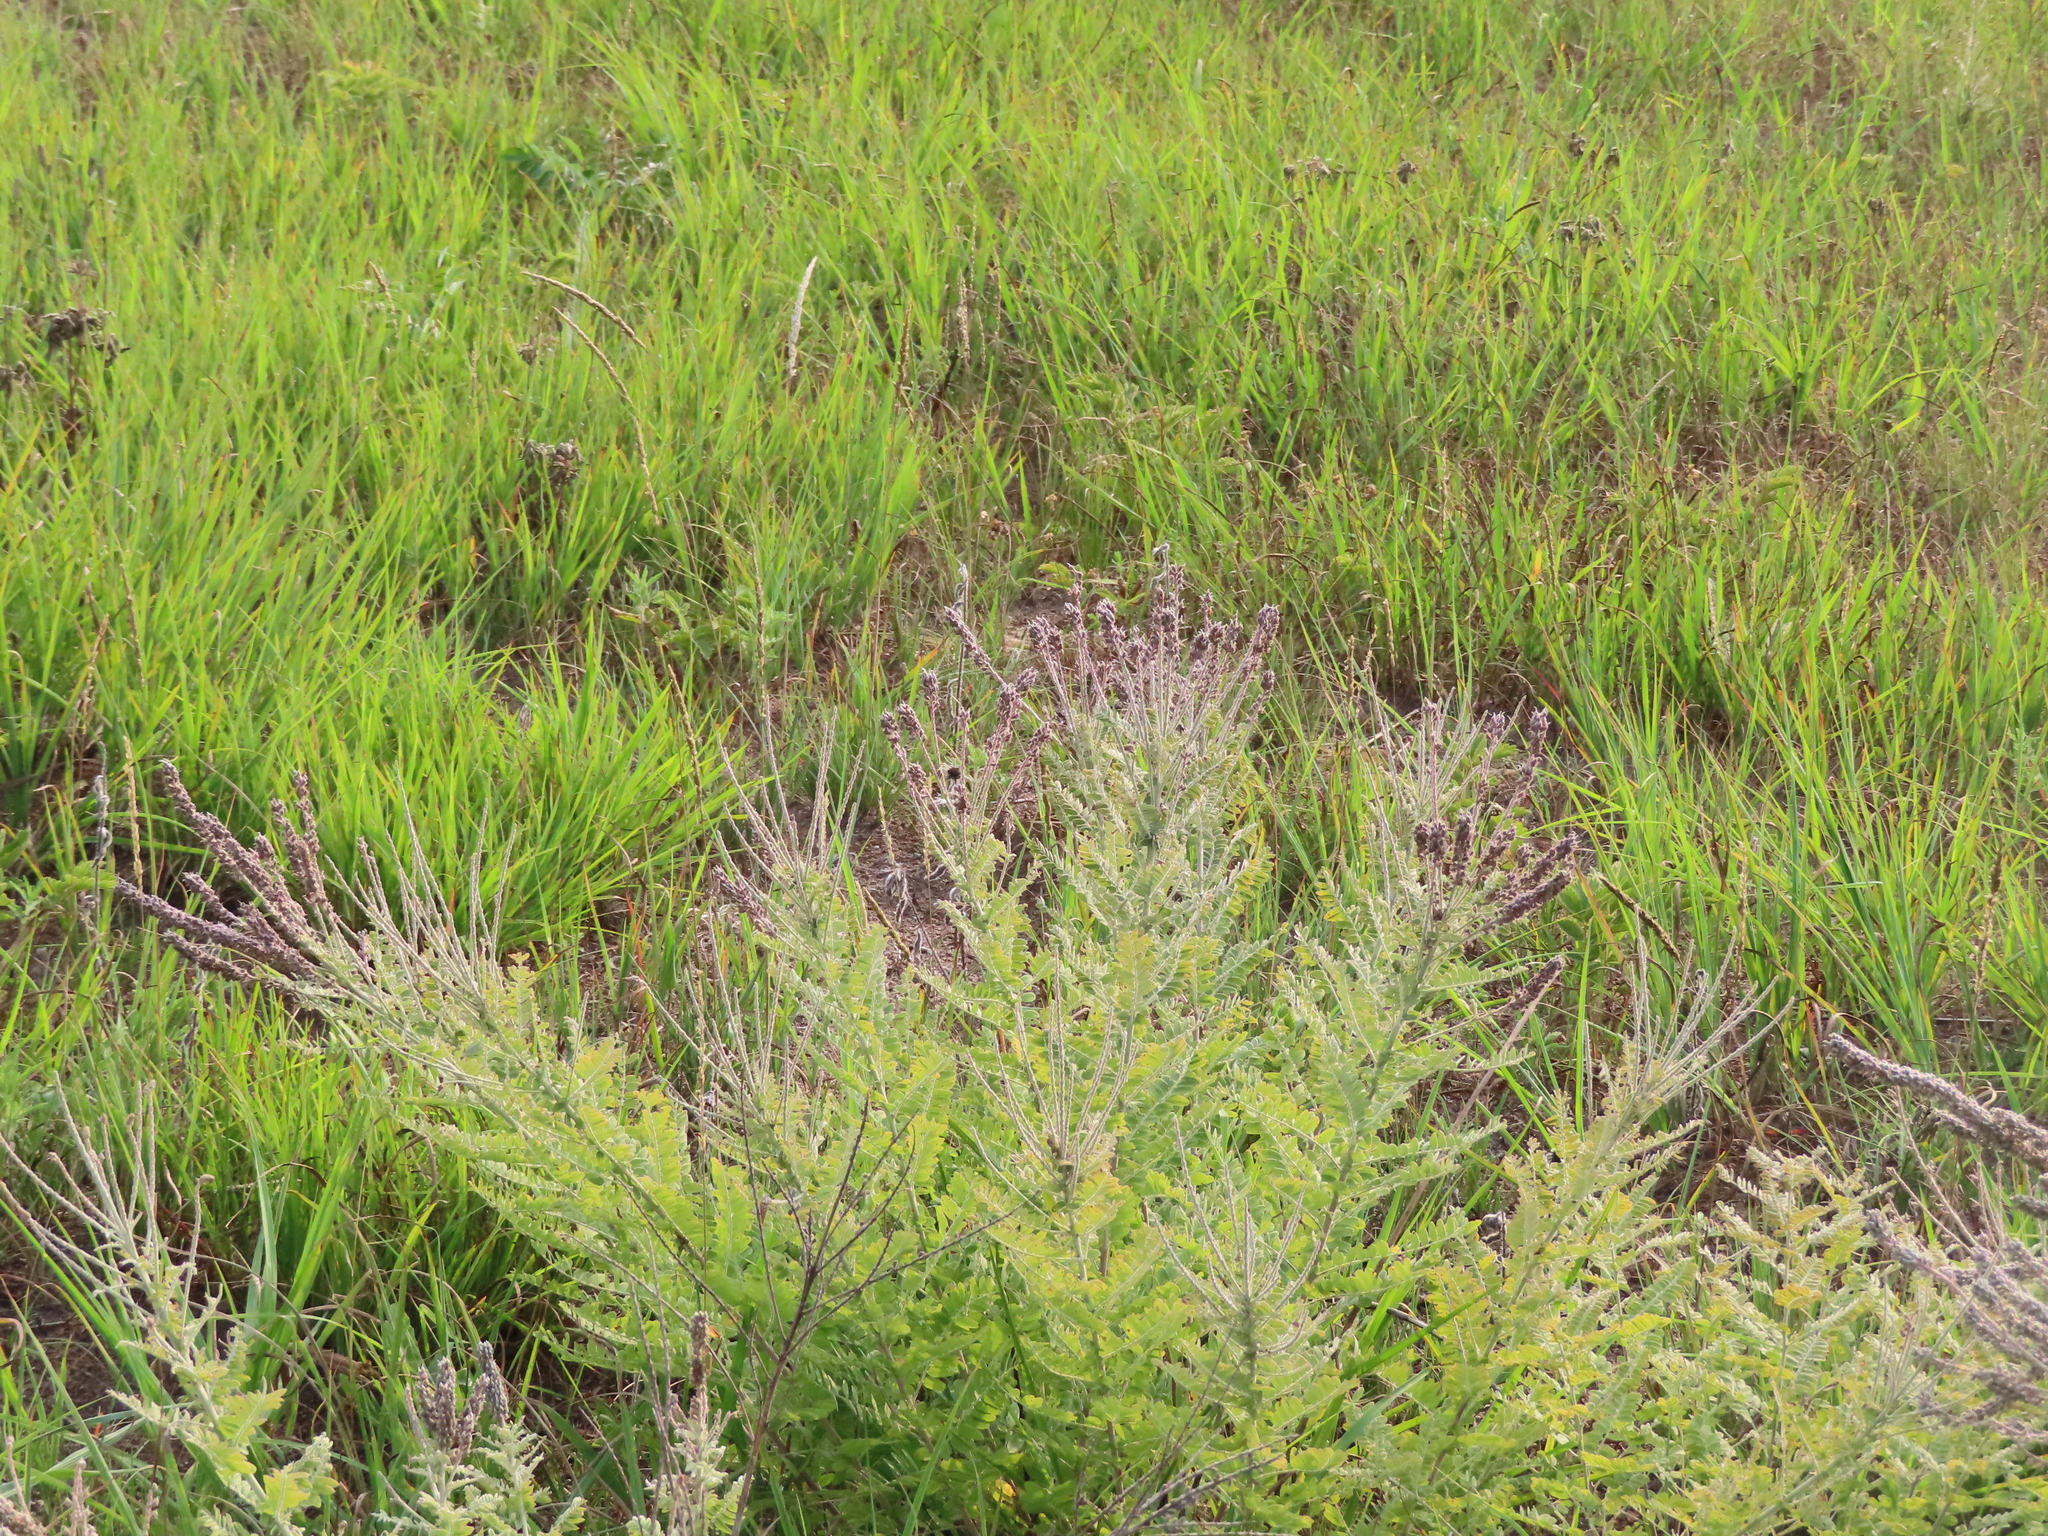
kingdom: Plantae
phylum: Tracheophyta
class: Magnoliopsida
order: Fabales
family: Fabaceae
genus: Amorpha
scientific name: Amorpha canescens
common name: Leadplant
